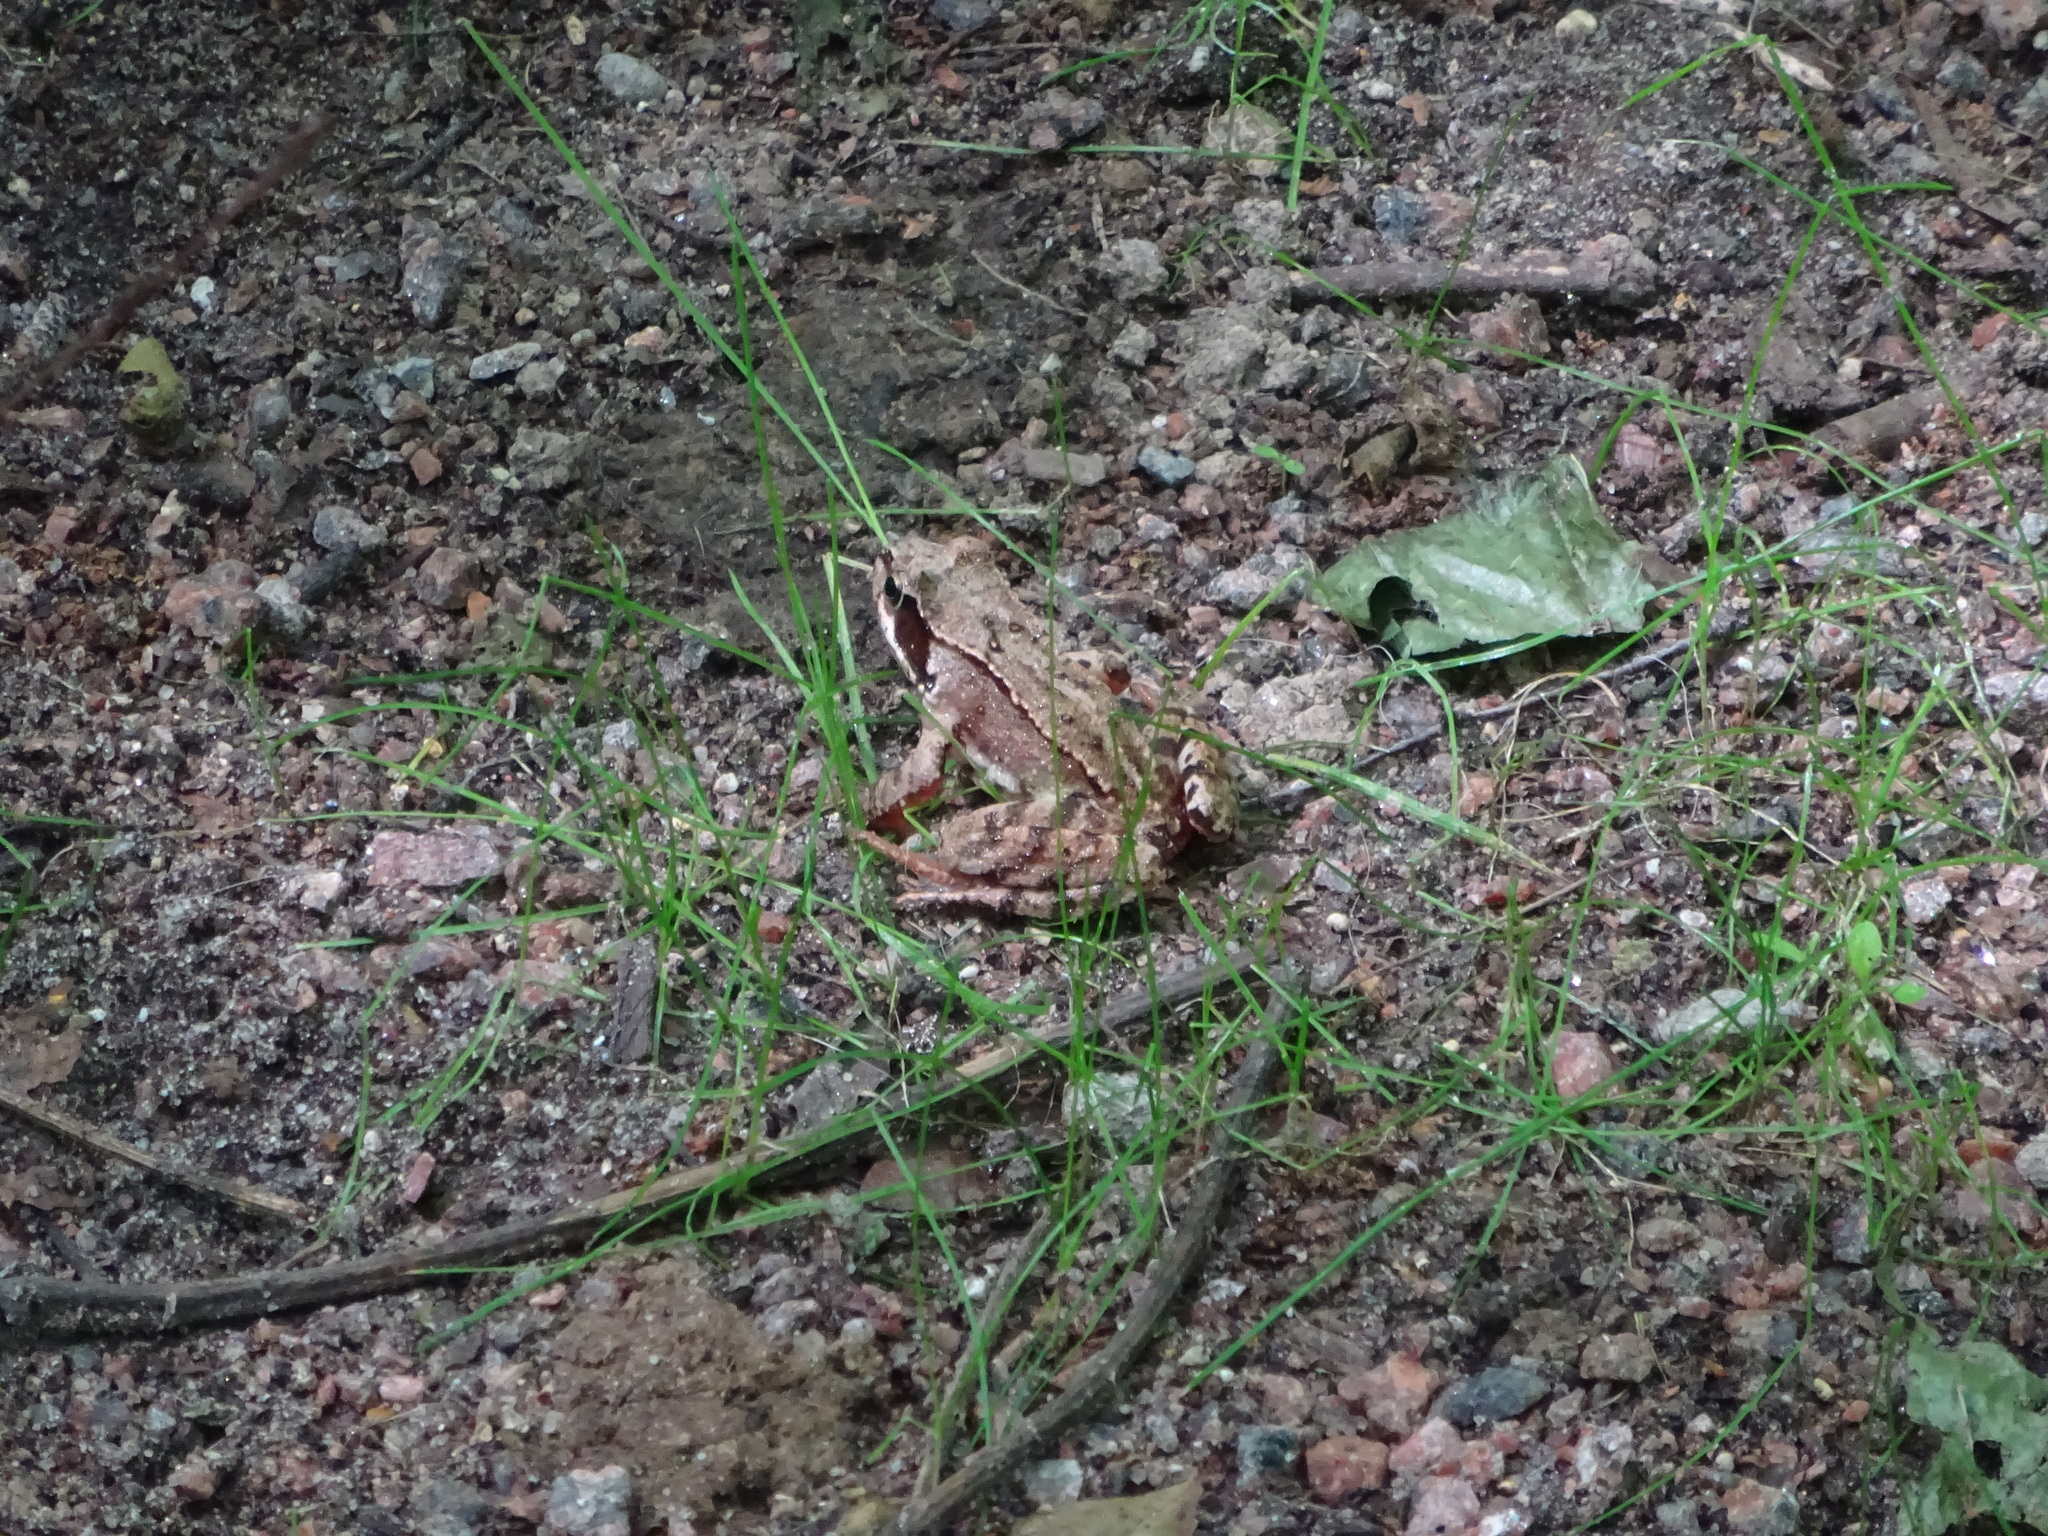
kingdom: Animalia
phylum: Chordata
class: Amphibia
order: Anura
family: Ranidae
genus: Rana
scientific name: Rana temporaria
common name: Common frog
